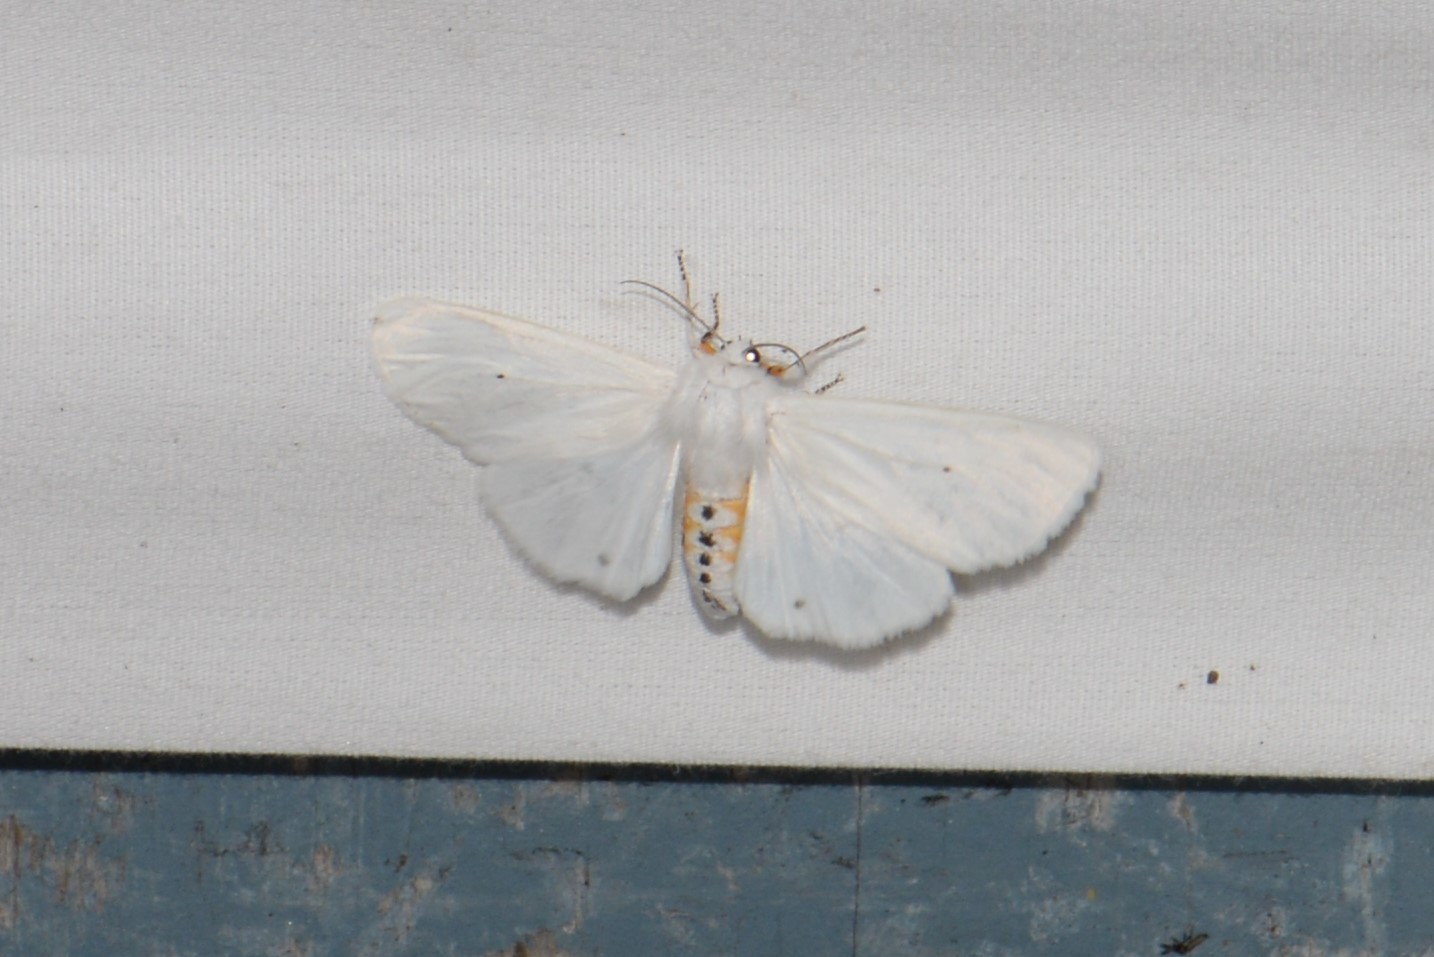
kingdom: Animalia
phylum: Arthropoda
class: Insecta
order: Lepidoptera
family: Erebidae
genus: Spilosoma
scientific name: Spilosoma virginica
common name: Virginia tiger moth
